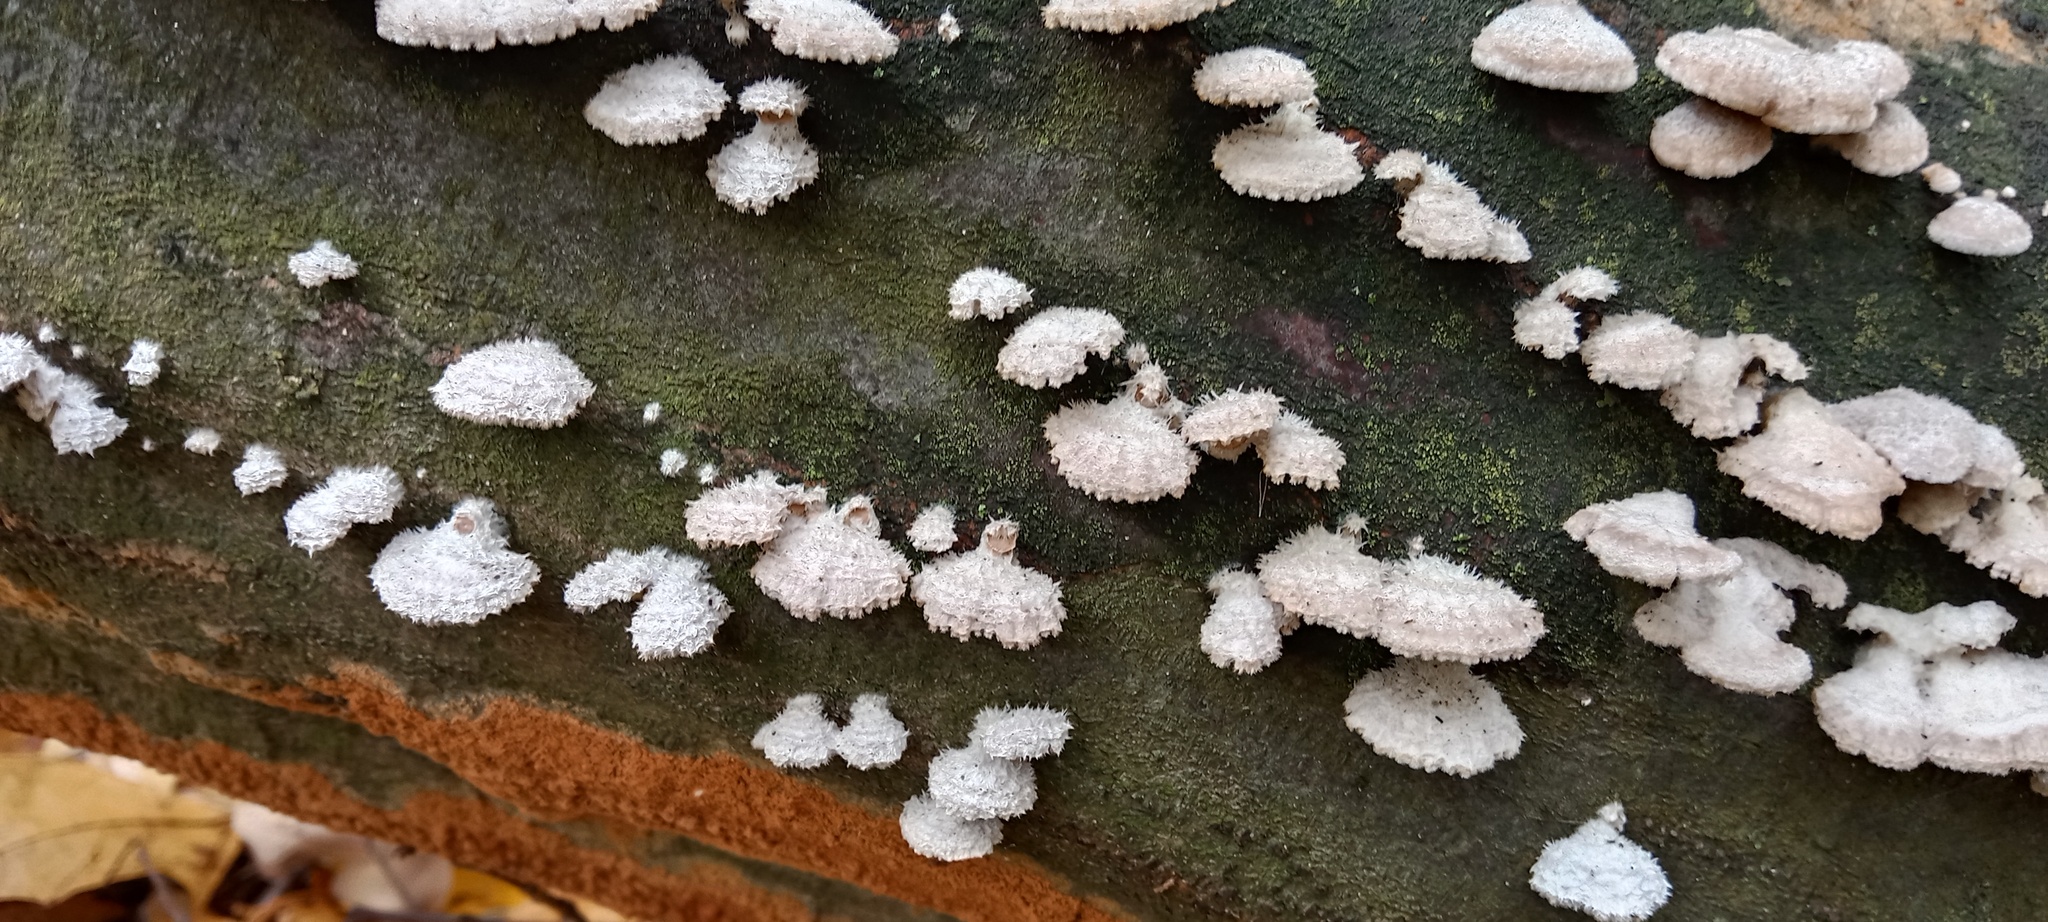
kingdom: Fungi
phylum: Basidiomycota
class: Agaricomycetes
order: Agaricales
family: Schizophyllaceae
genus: Schizophyllum
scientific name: Schizophyllum commune
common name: Common porecrust
